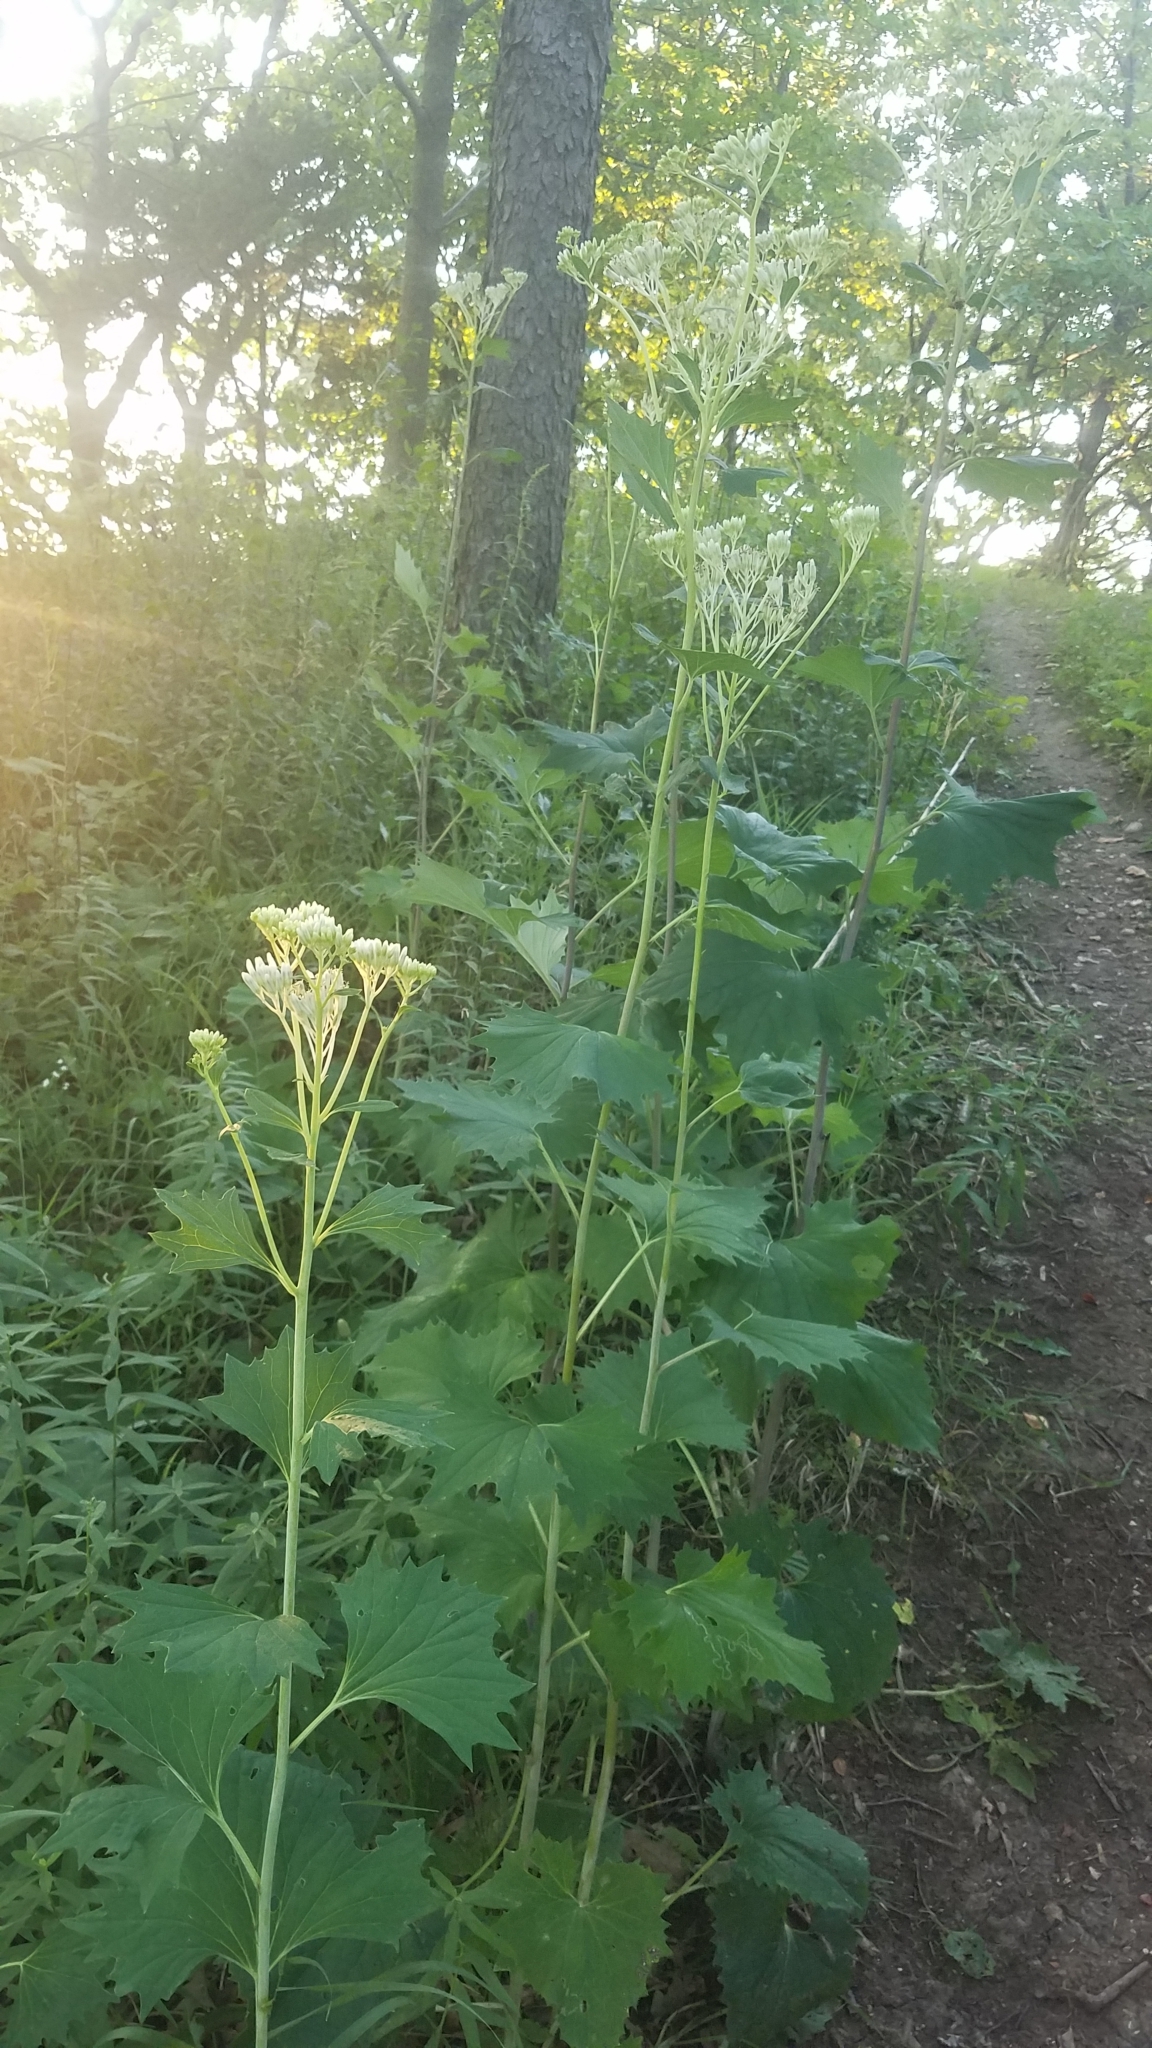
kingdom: Plantae
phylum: Tracheophyta
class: Magnoliopsida
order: Asterales
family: Asteraceae
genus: Arnoglossum
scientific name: Arnoglossum atriplicifolium
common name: Pale indian-plantain
